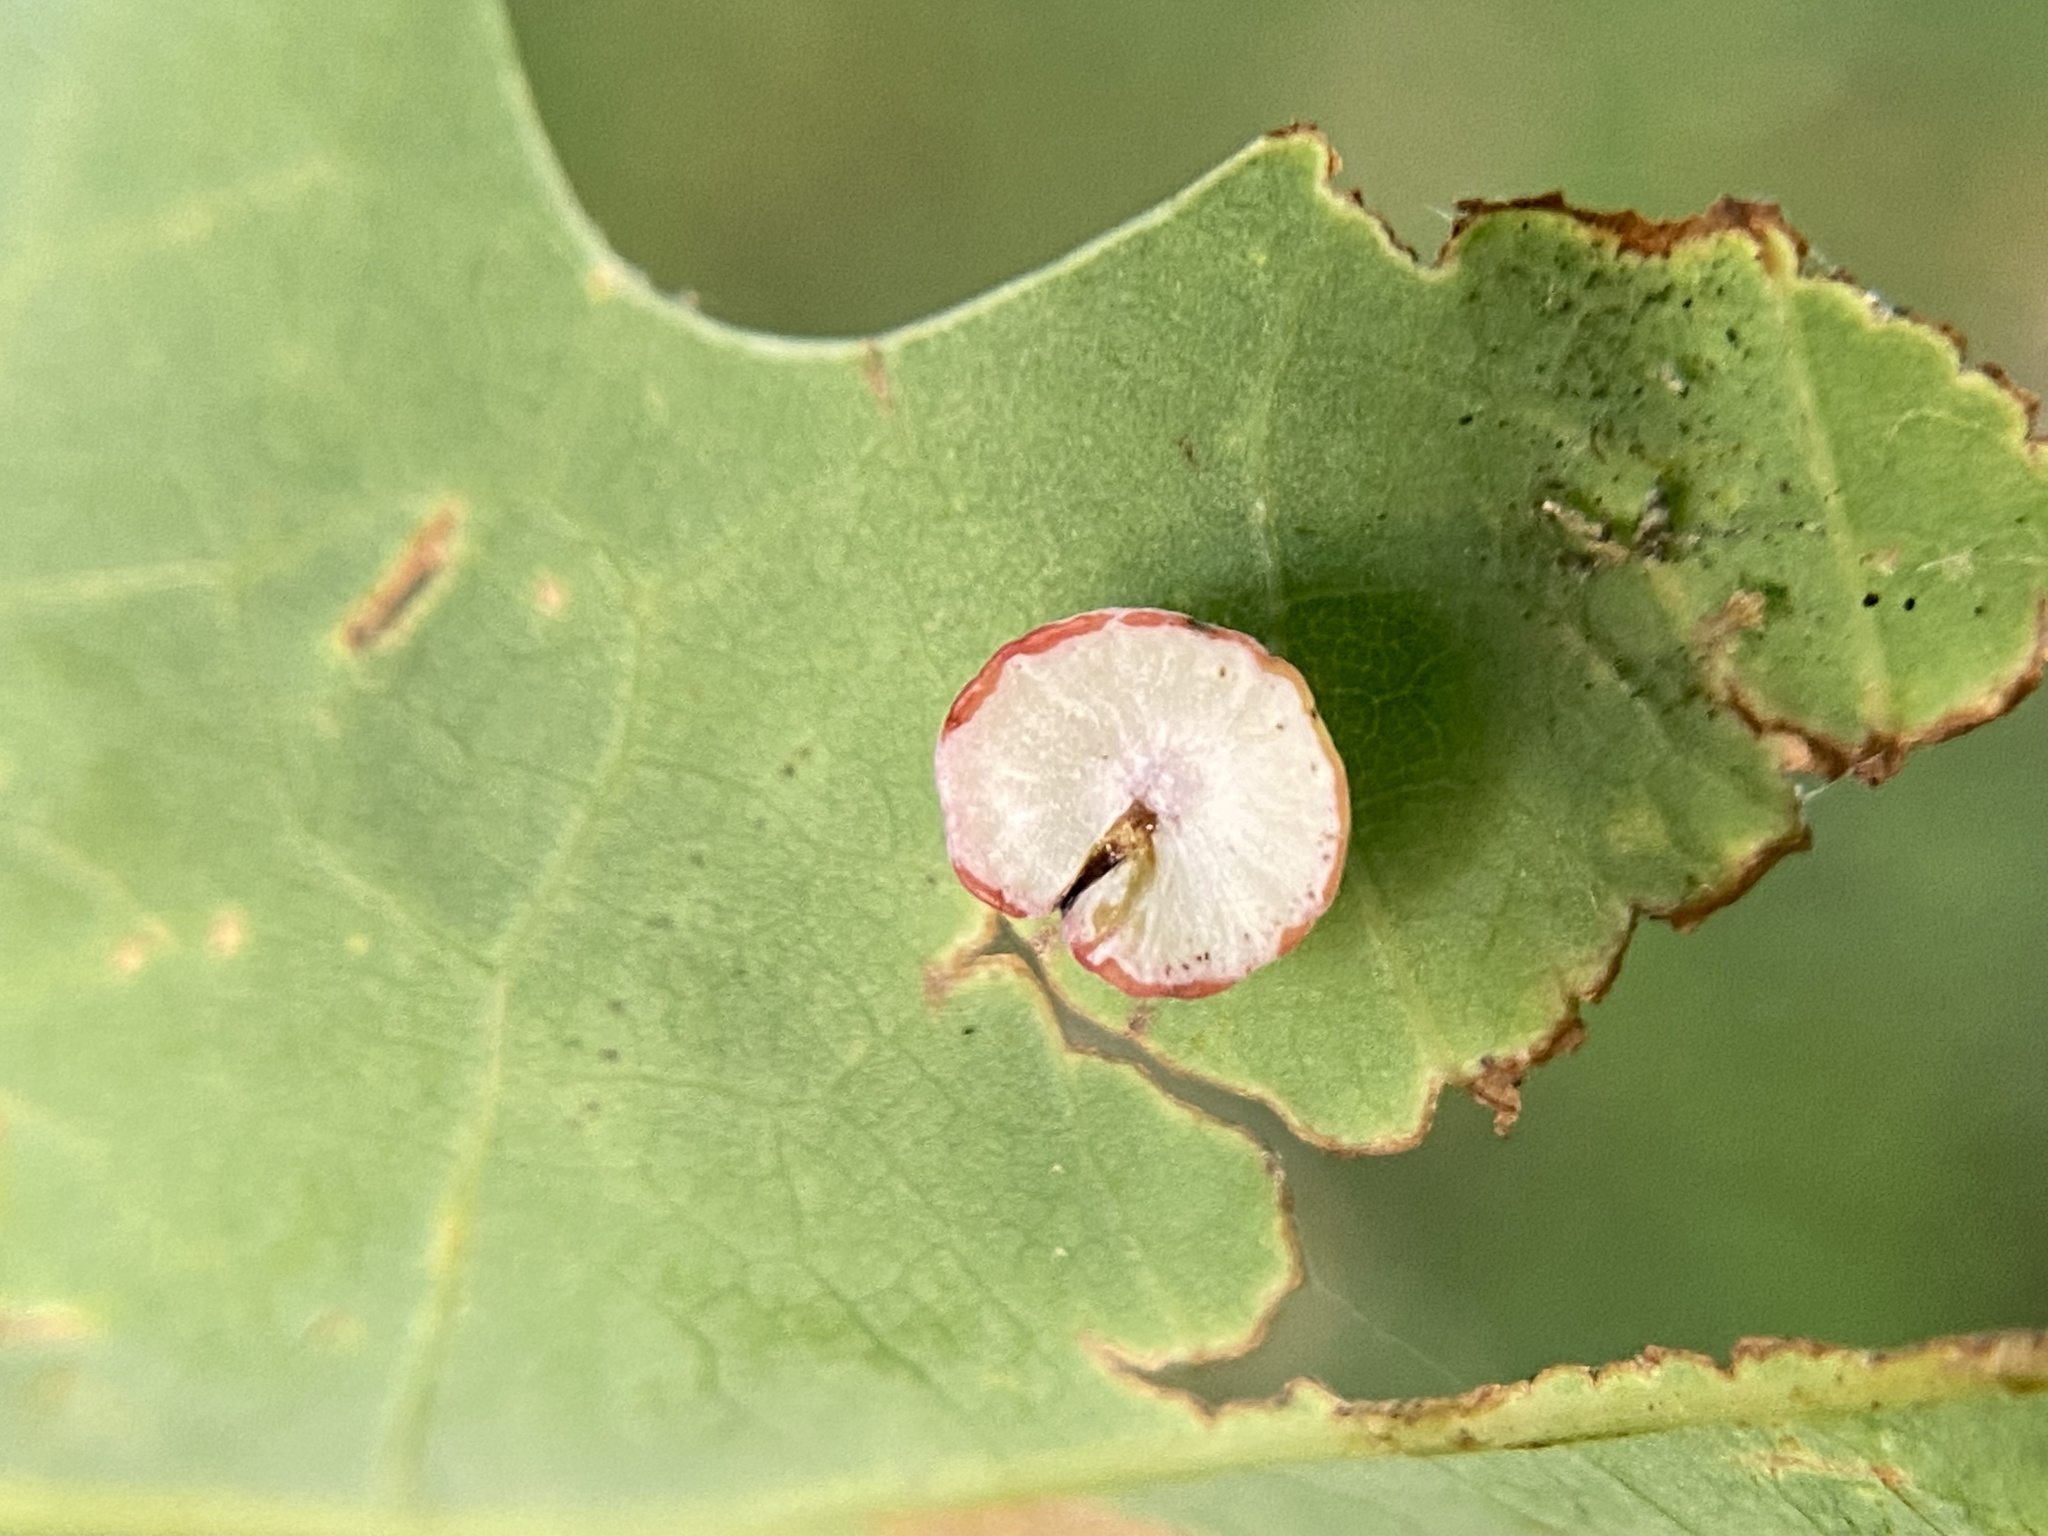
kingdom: Animalia
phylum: Arthropoda
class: Insecta
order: Hymenoptera
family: Cynipidae
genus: Phylloteras
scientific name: Phylloteras poculum
